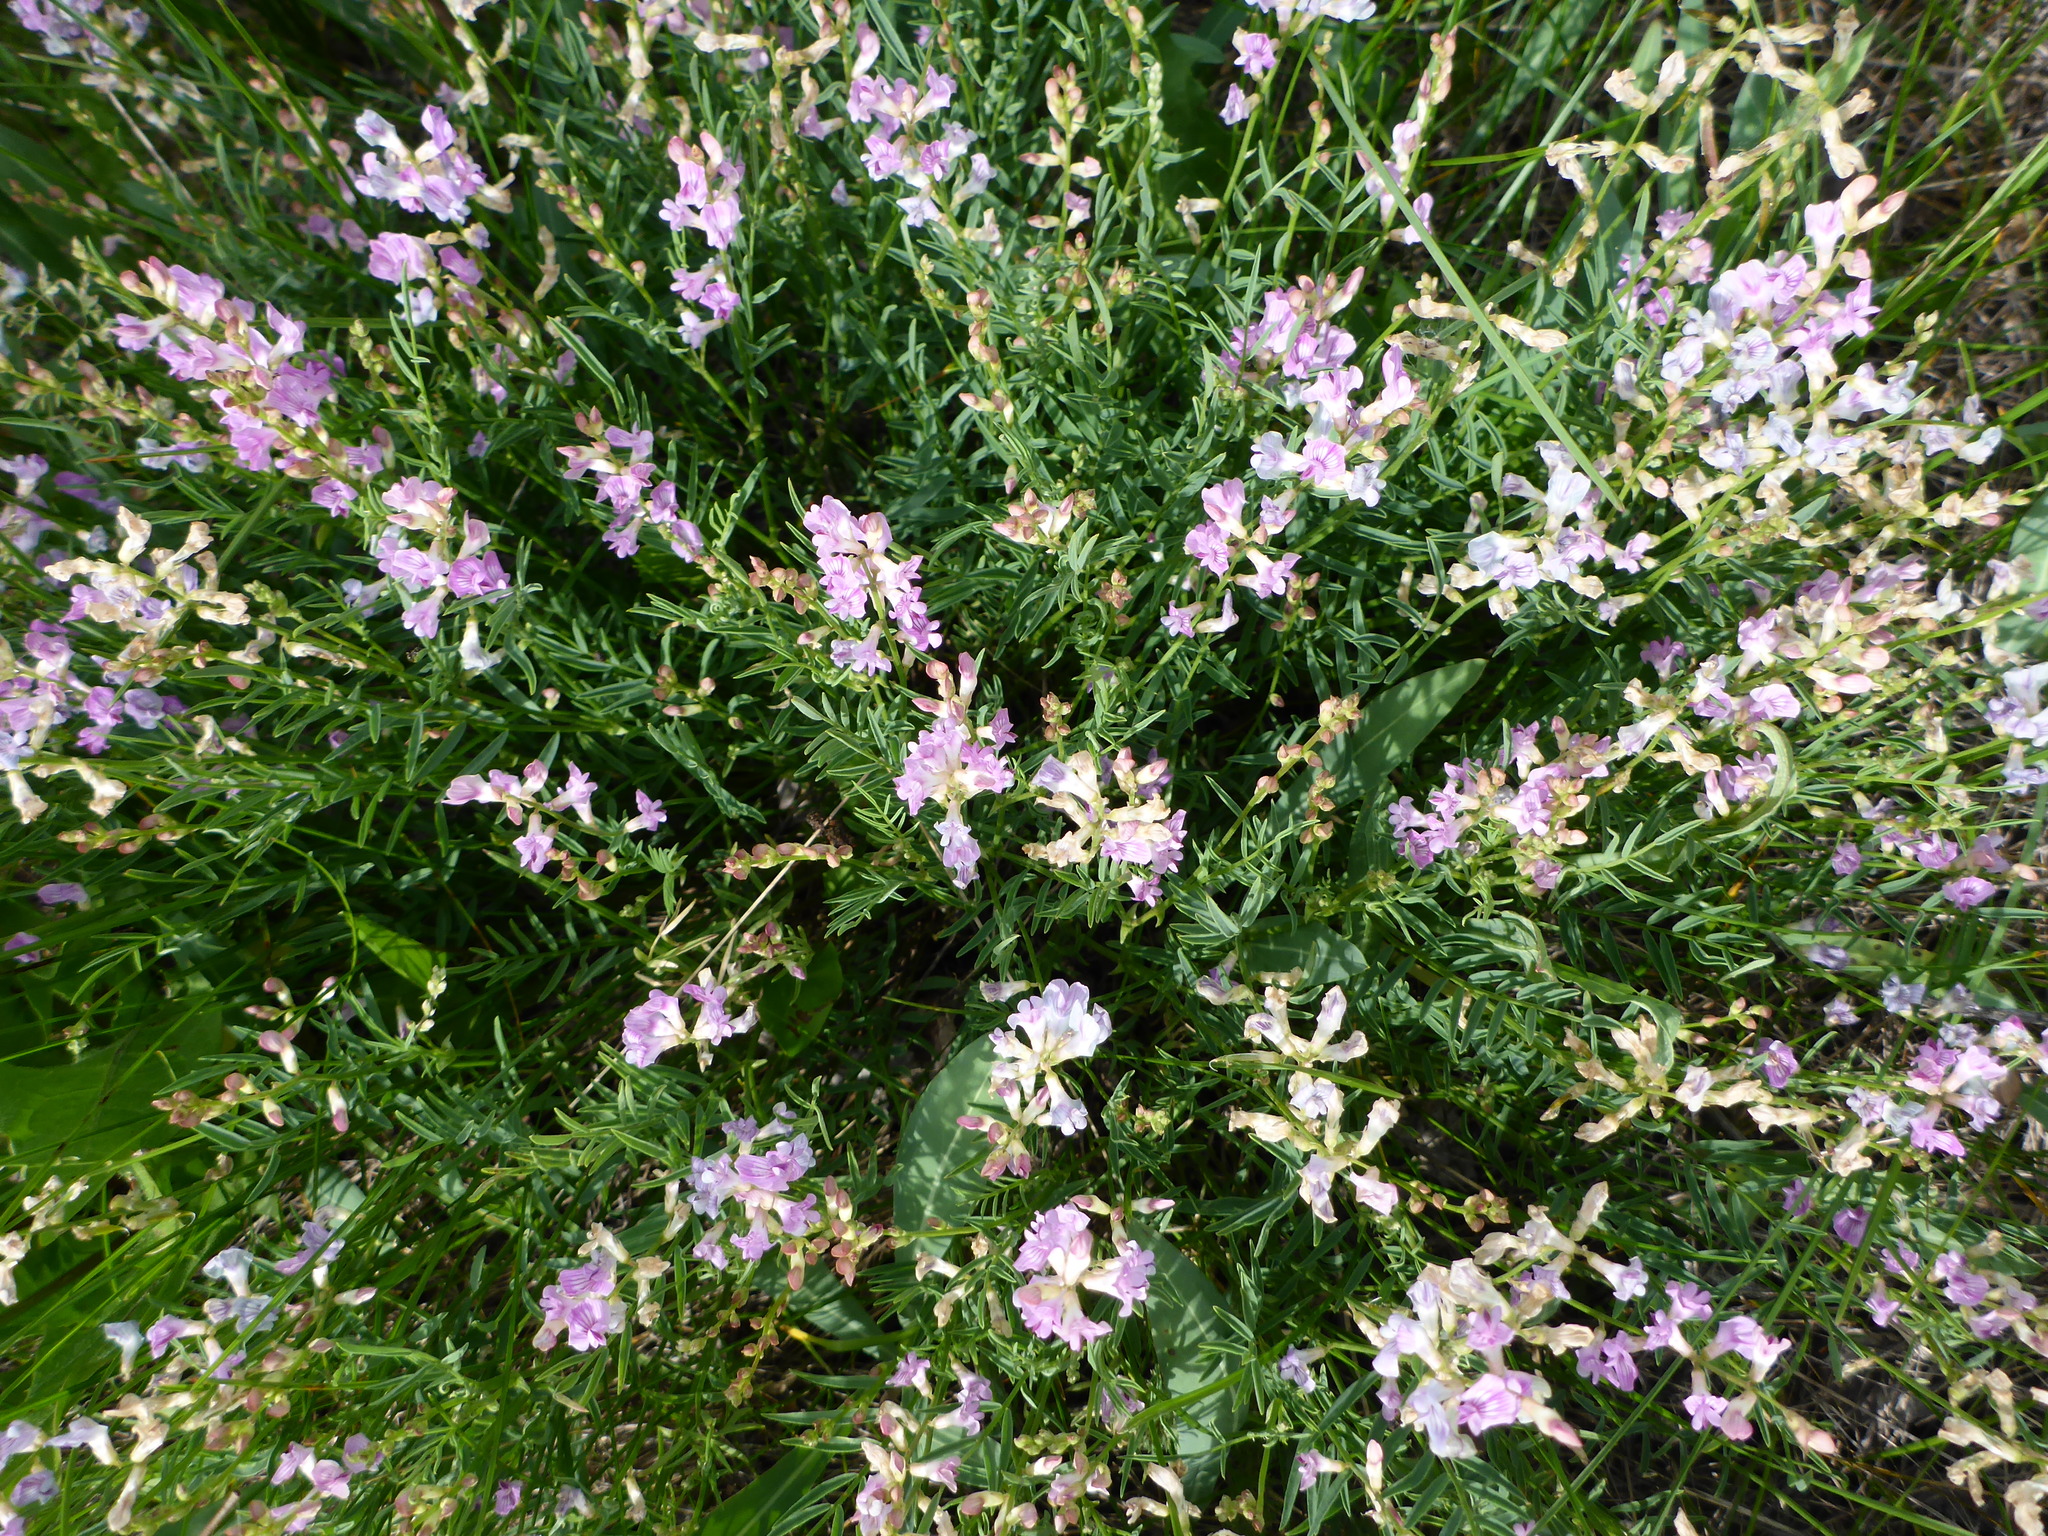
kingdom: Plantae
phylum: Tracheophyta
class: Magnoliopsida
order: Fabales
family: Fabaceae
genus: Astragalus
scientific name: Astragalus miser
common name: Timber milkvetch
